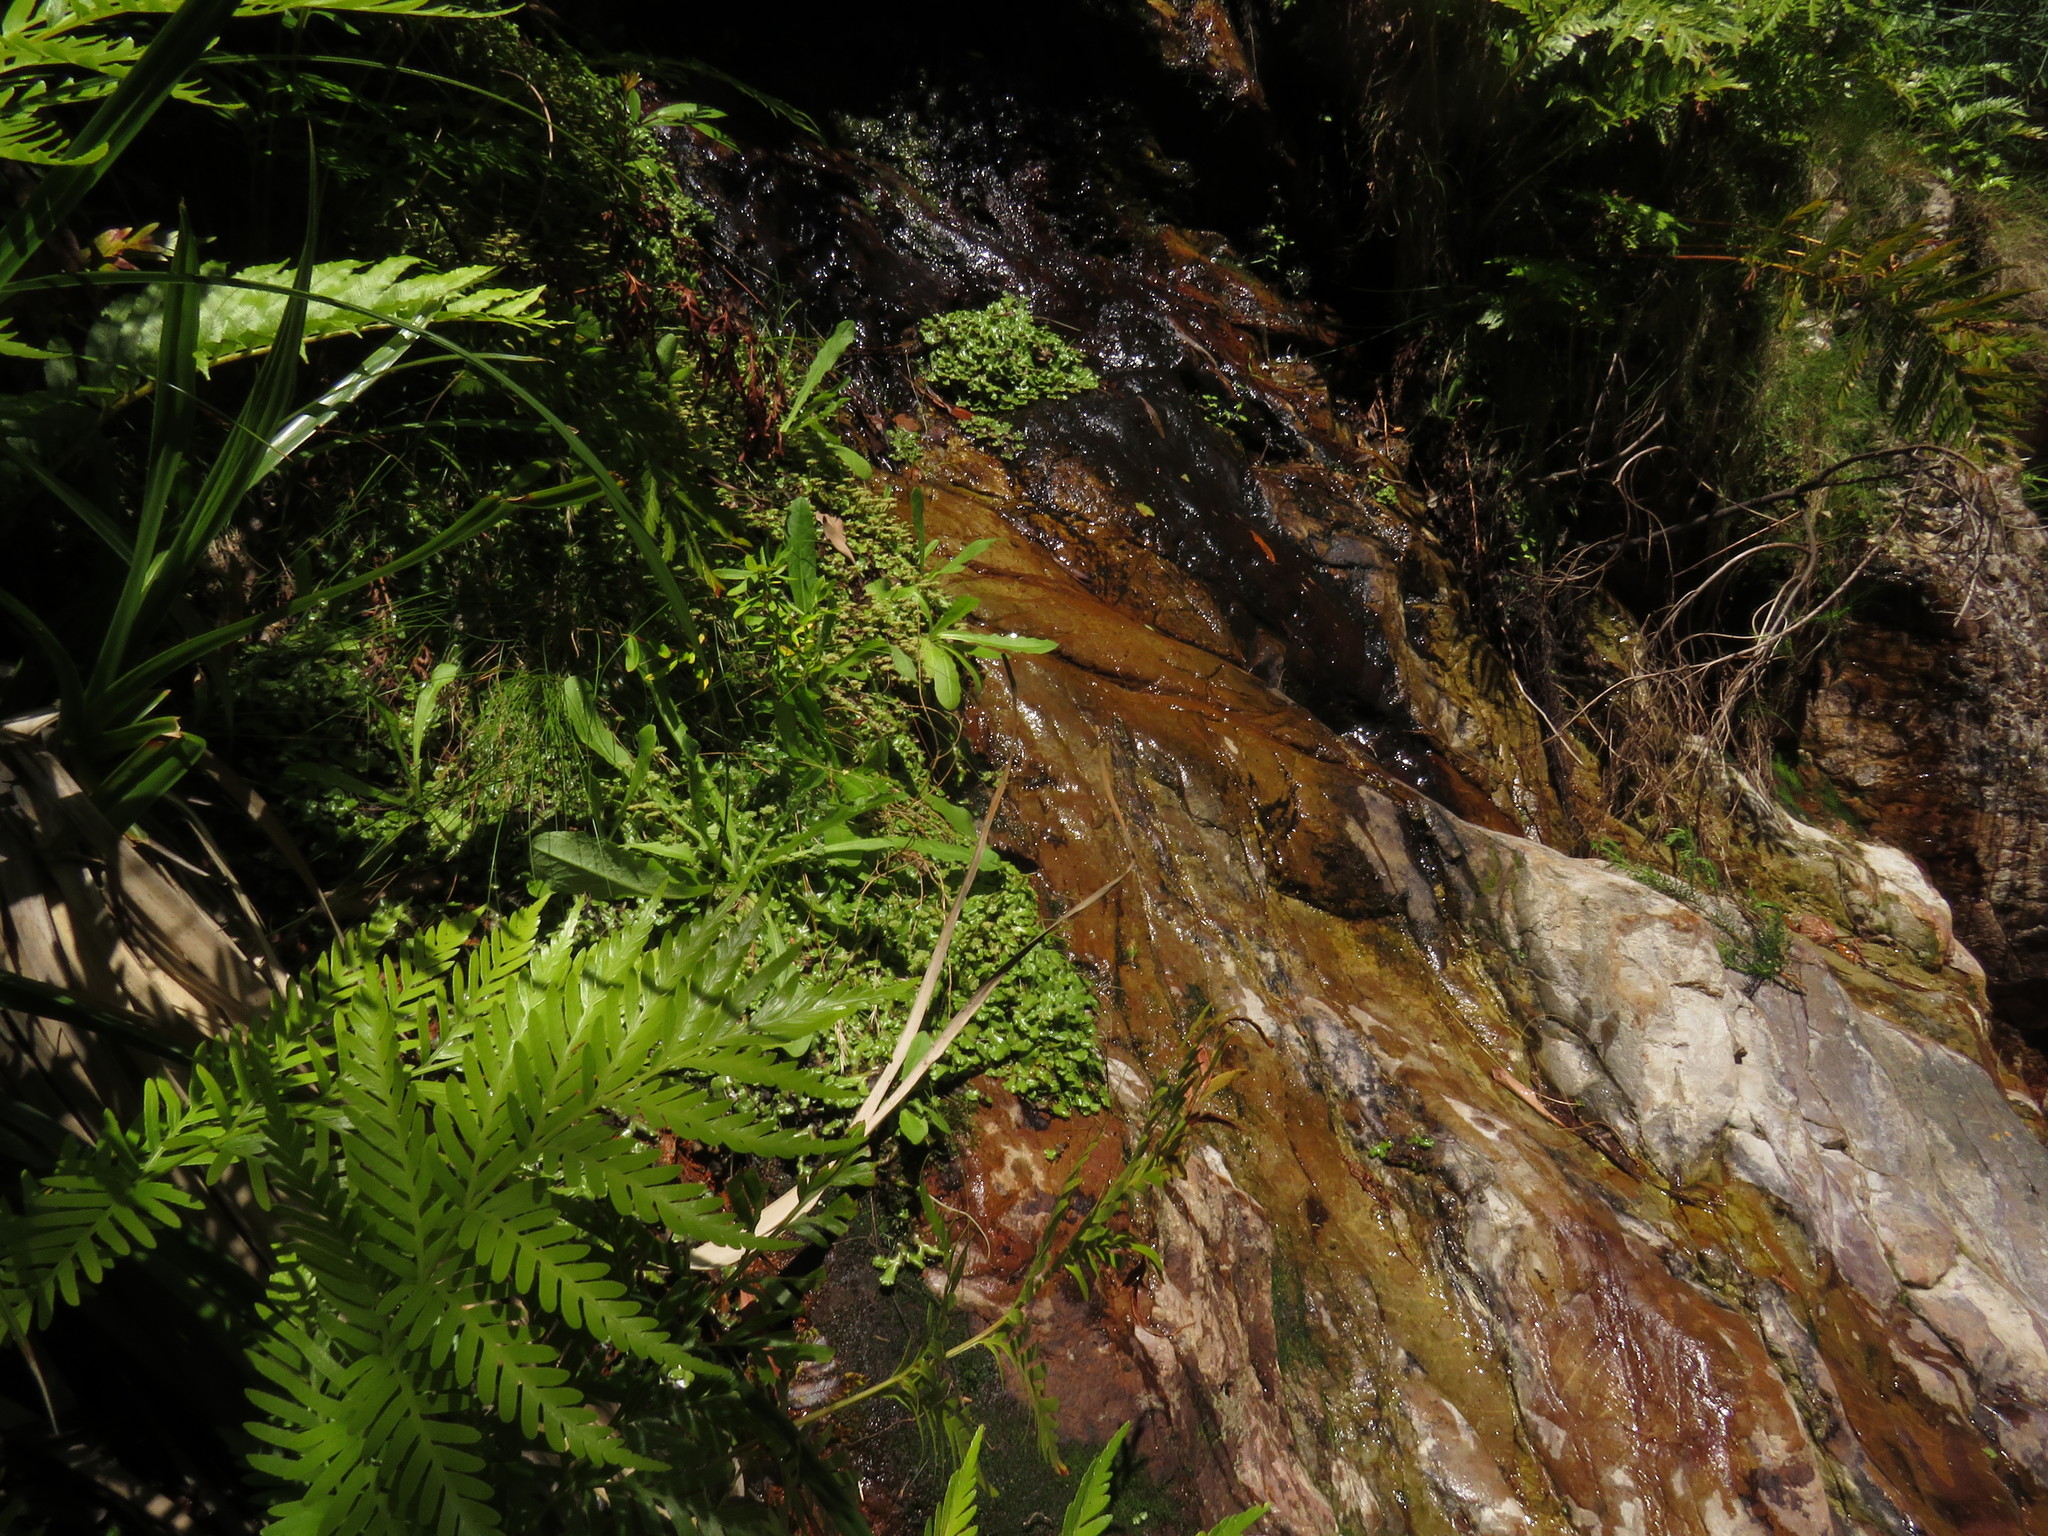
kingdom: Plantae
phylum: Marchantiophyta
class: Marchantiopsida
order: Marchantiales
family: Marchantiaceae
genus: Marchantia
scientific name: Marchantia berteroana
